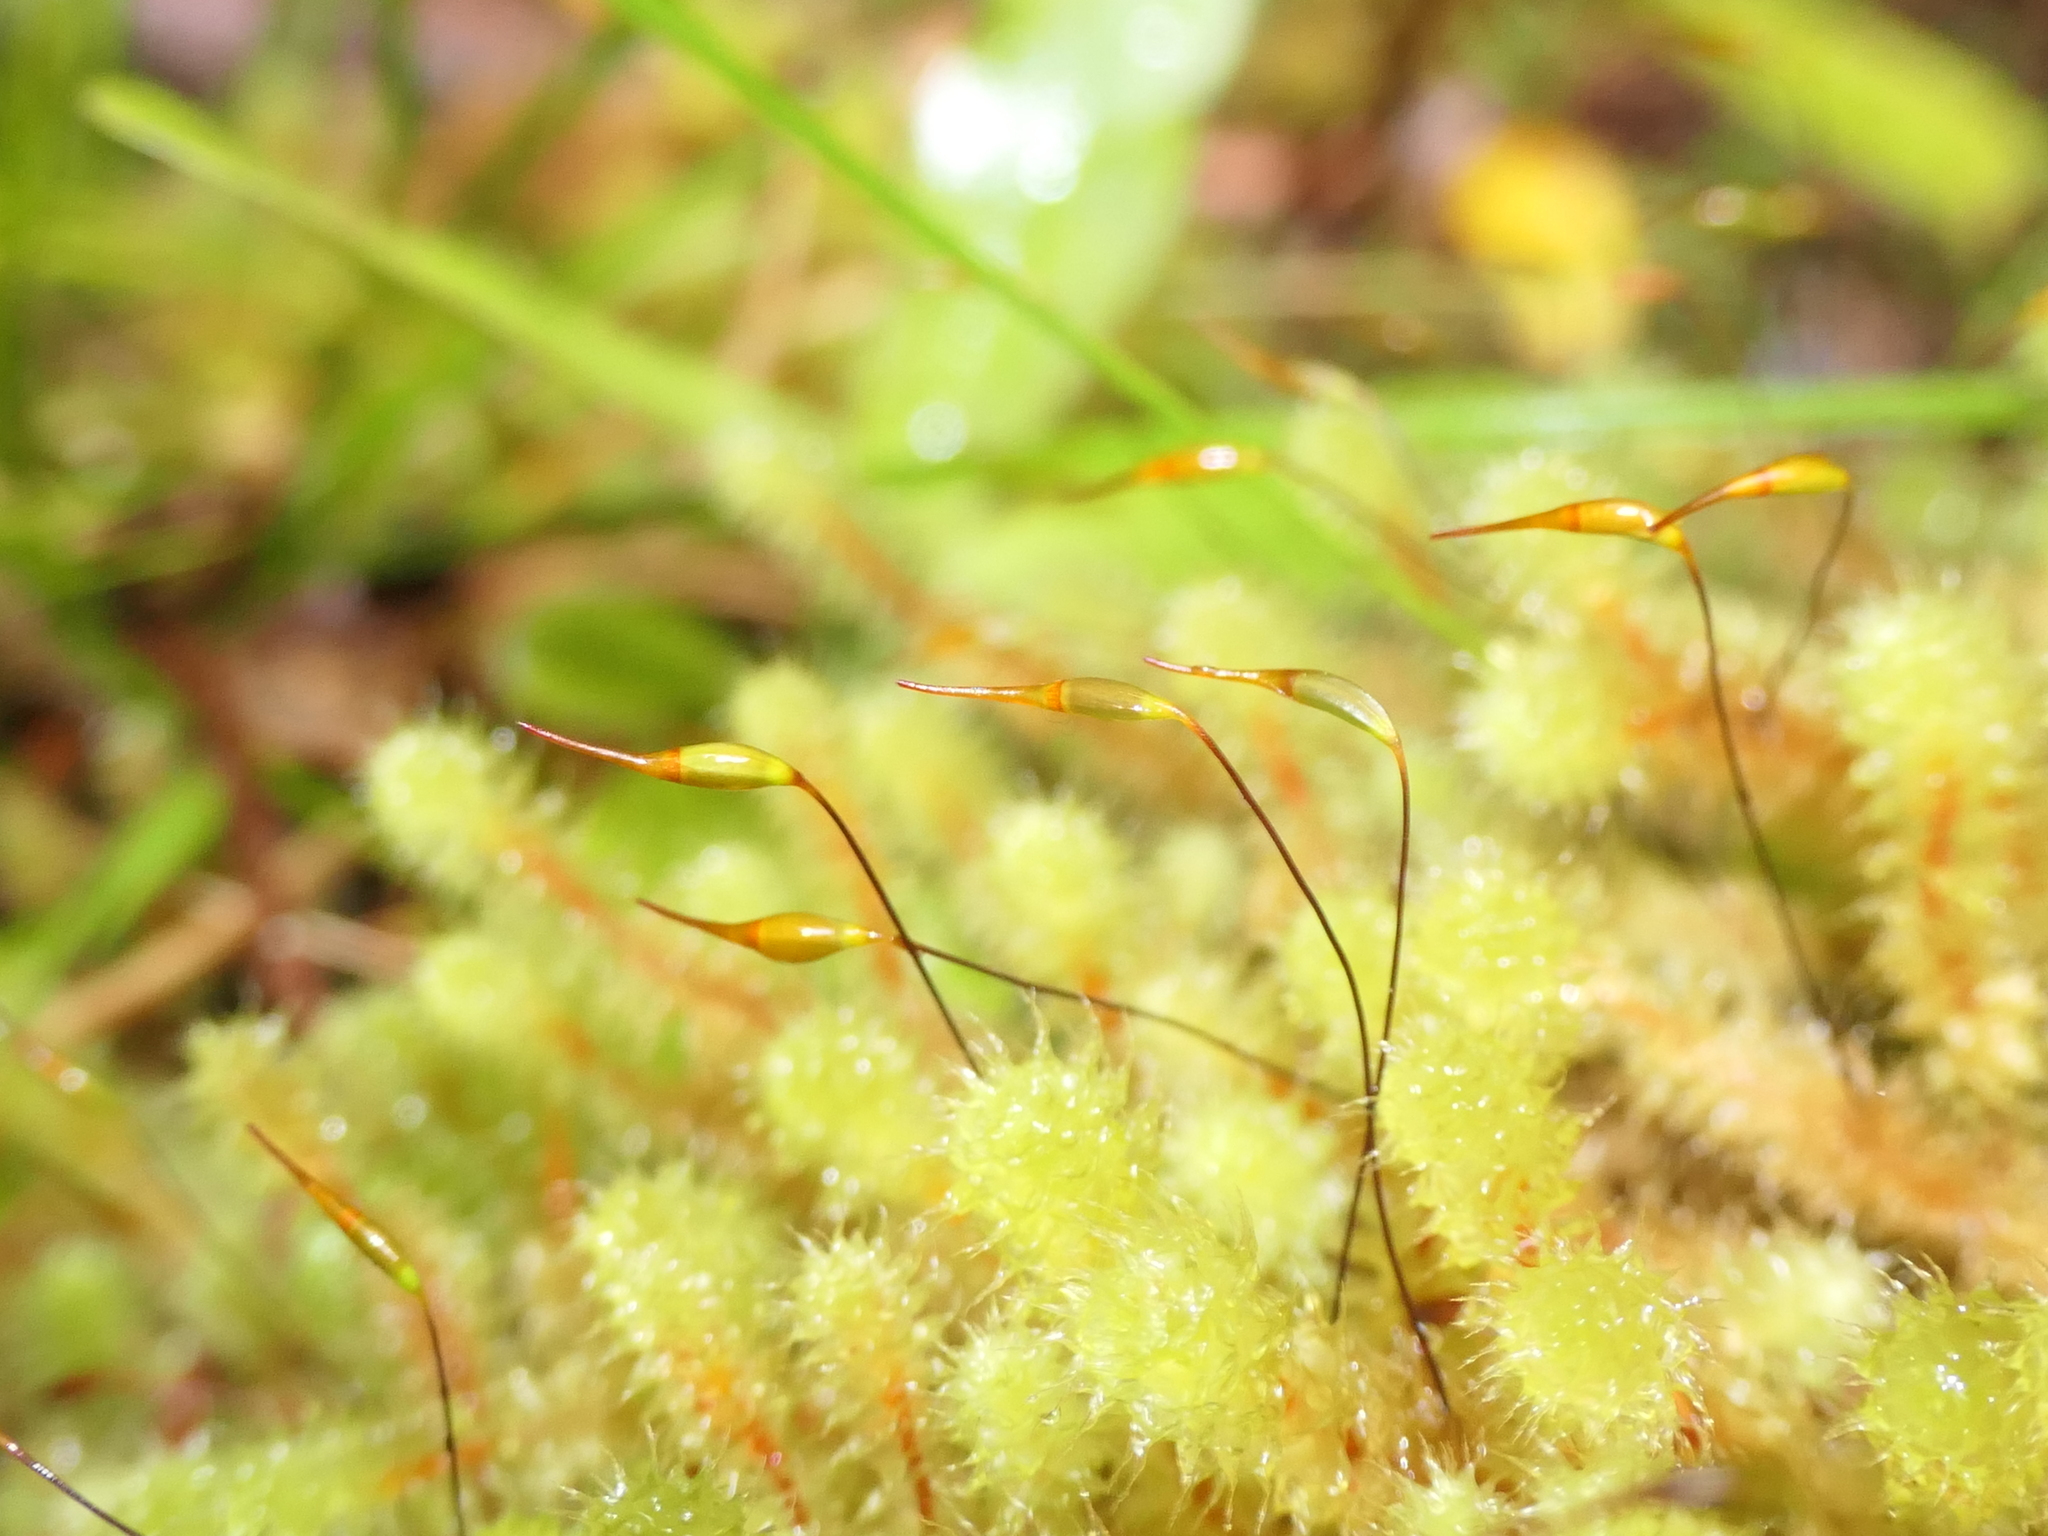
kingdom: Plantae
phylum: Bryophyta
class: Bryopsida
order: Ptychomniales
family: Ptychomniaceae
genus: Ptychomnion
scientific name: Ptychomnion aciculare
